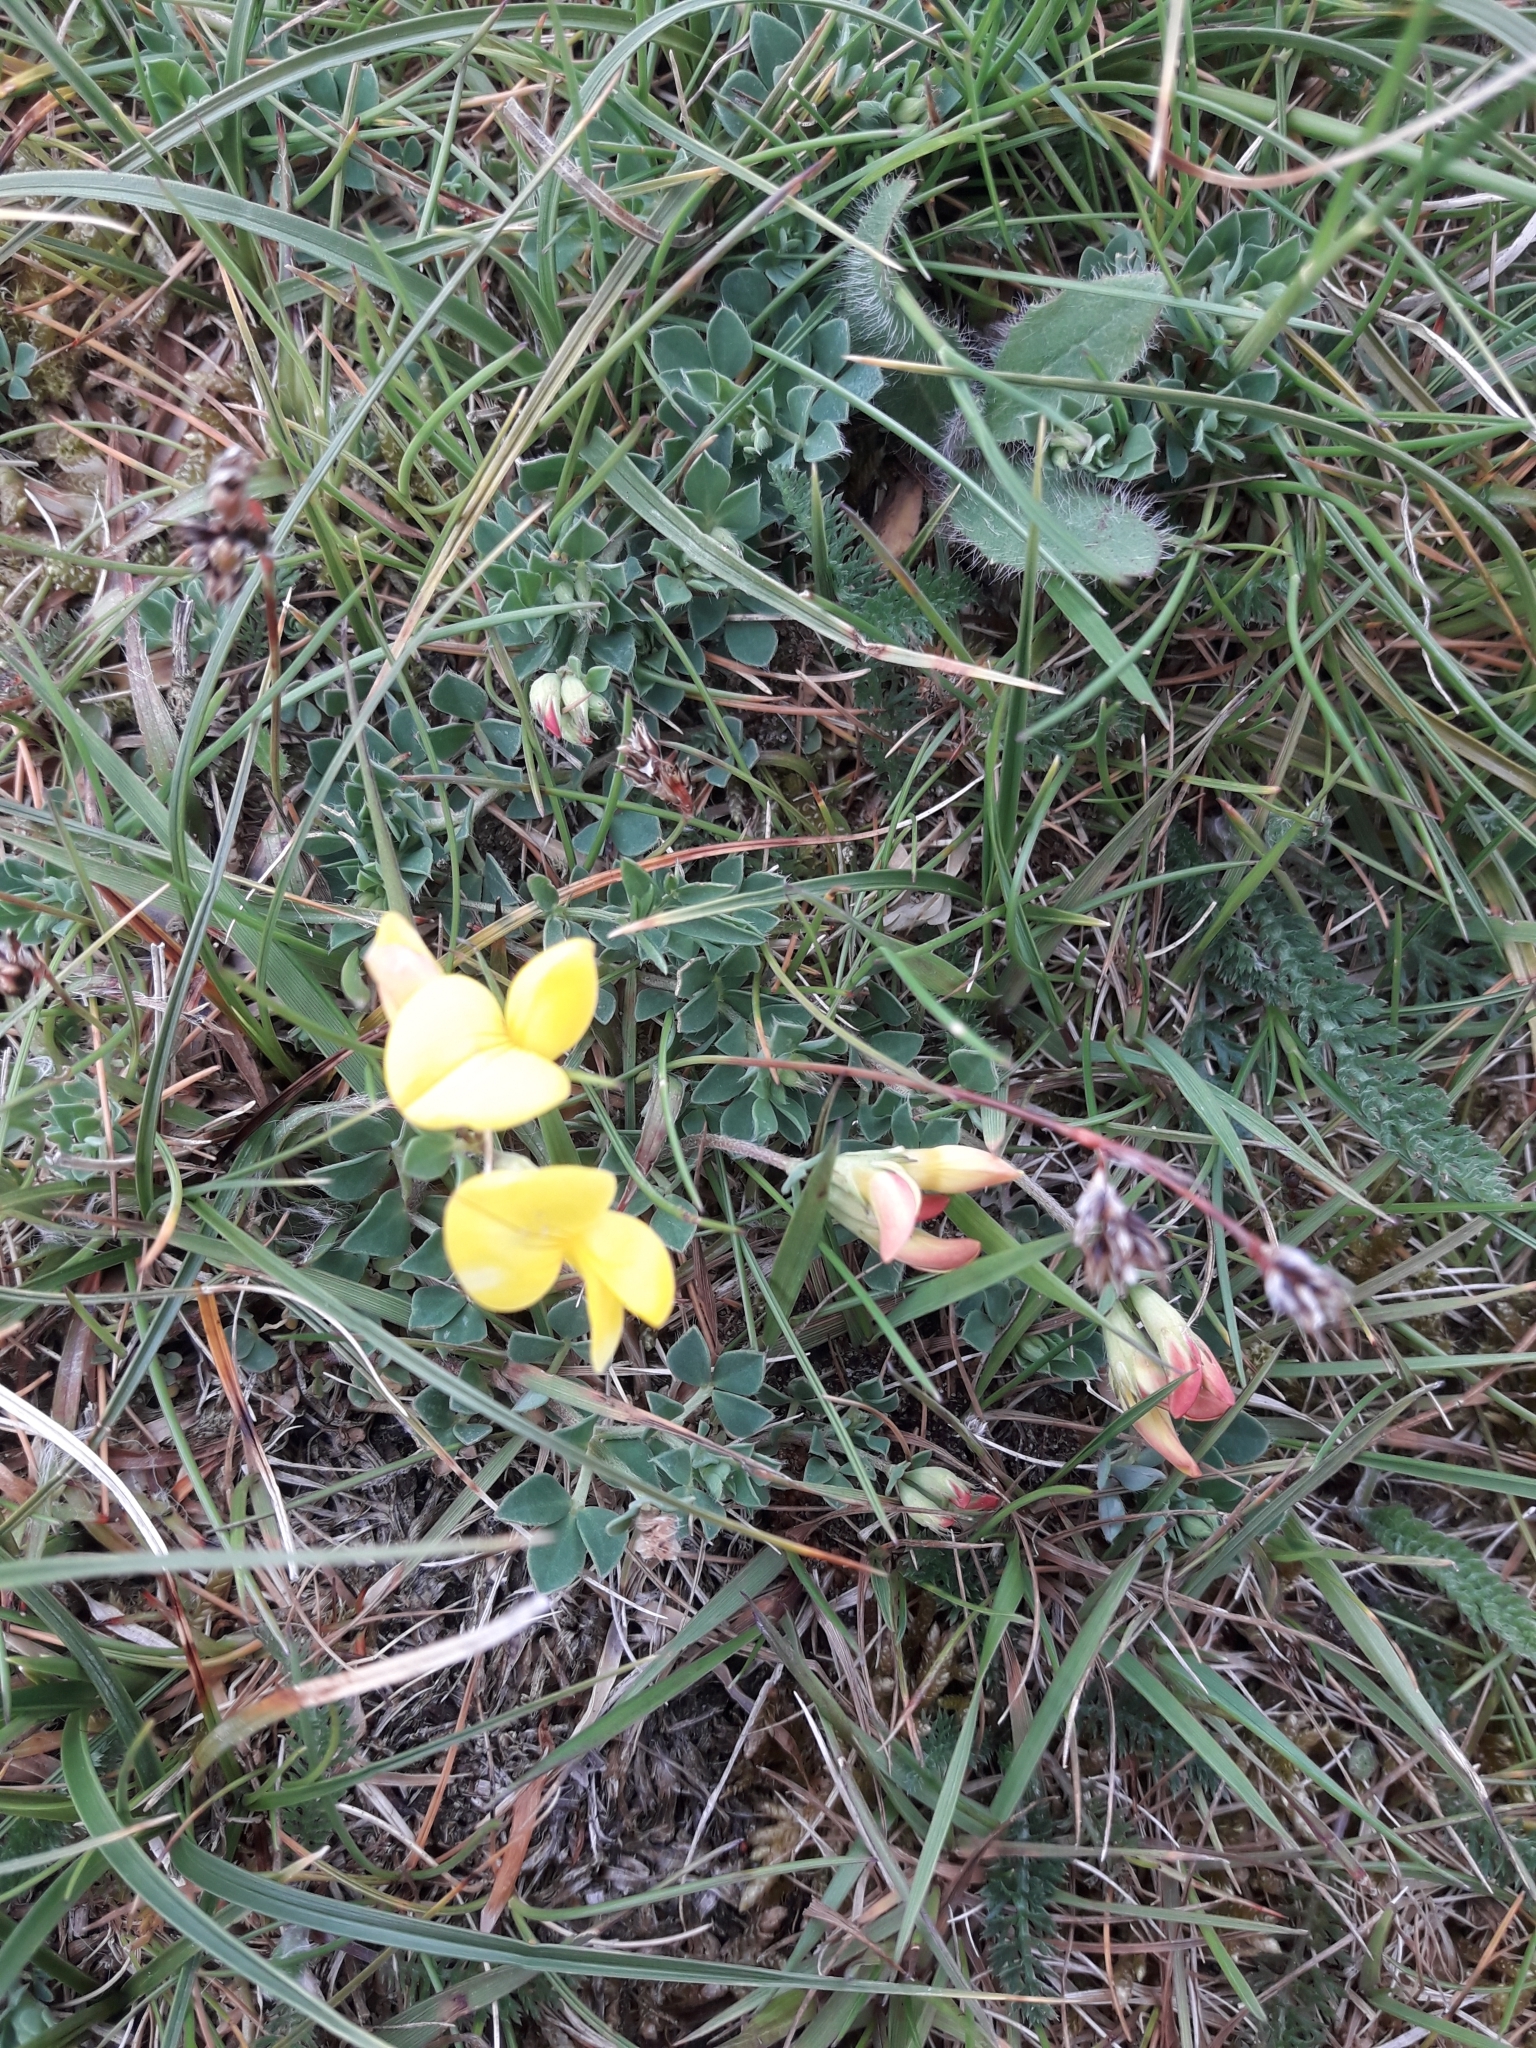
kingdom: Plantae
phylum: Tracheophyta
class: Magnoliopsida
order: Fabales
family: Fabaceae
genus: Lotus
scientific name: Lotus corniculatus
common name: Common bird's-foot-trefoil
